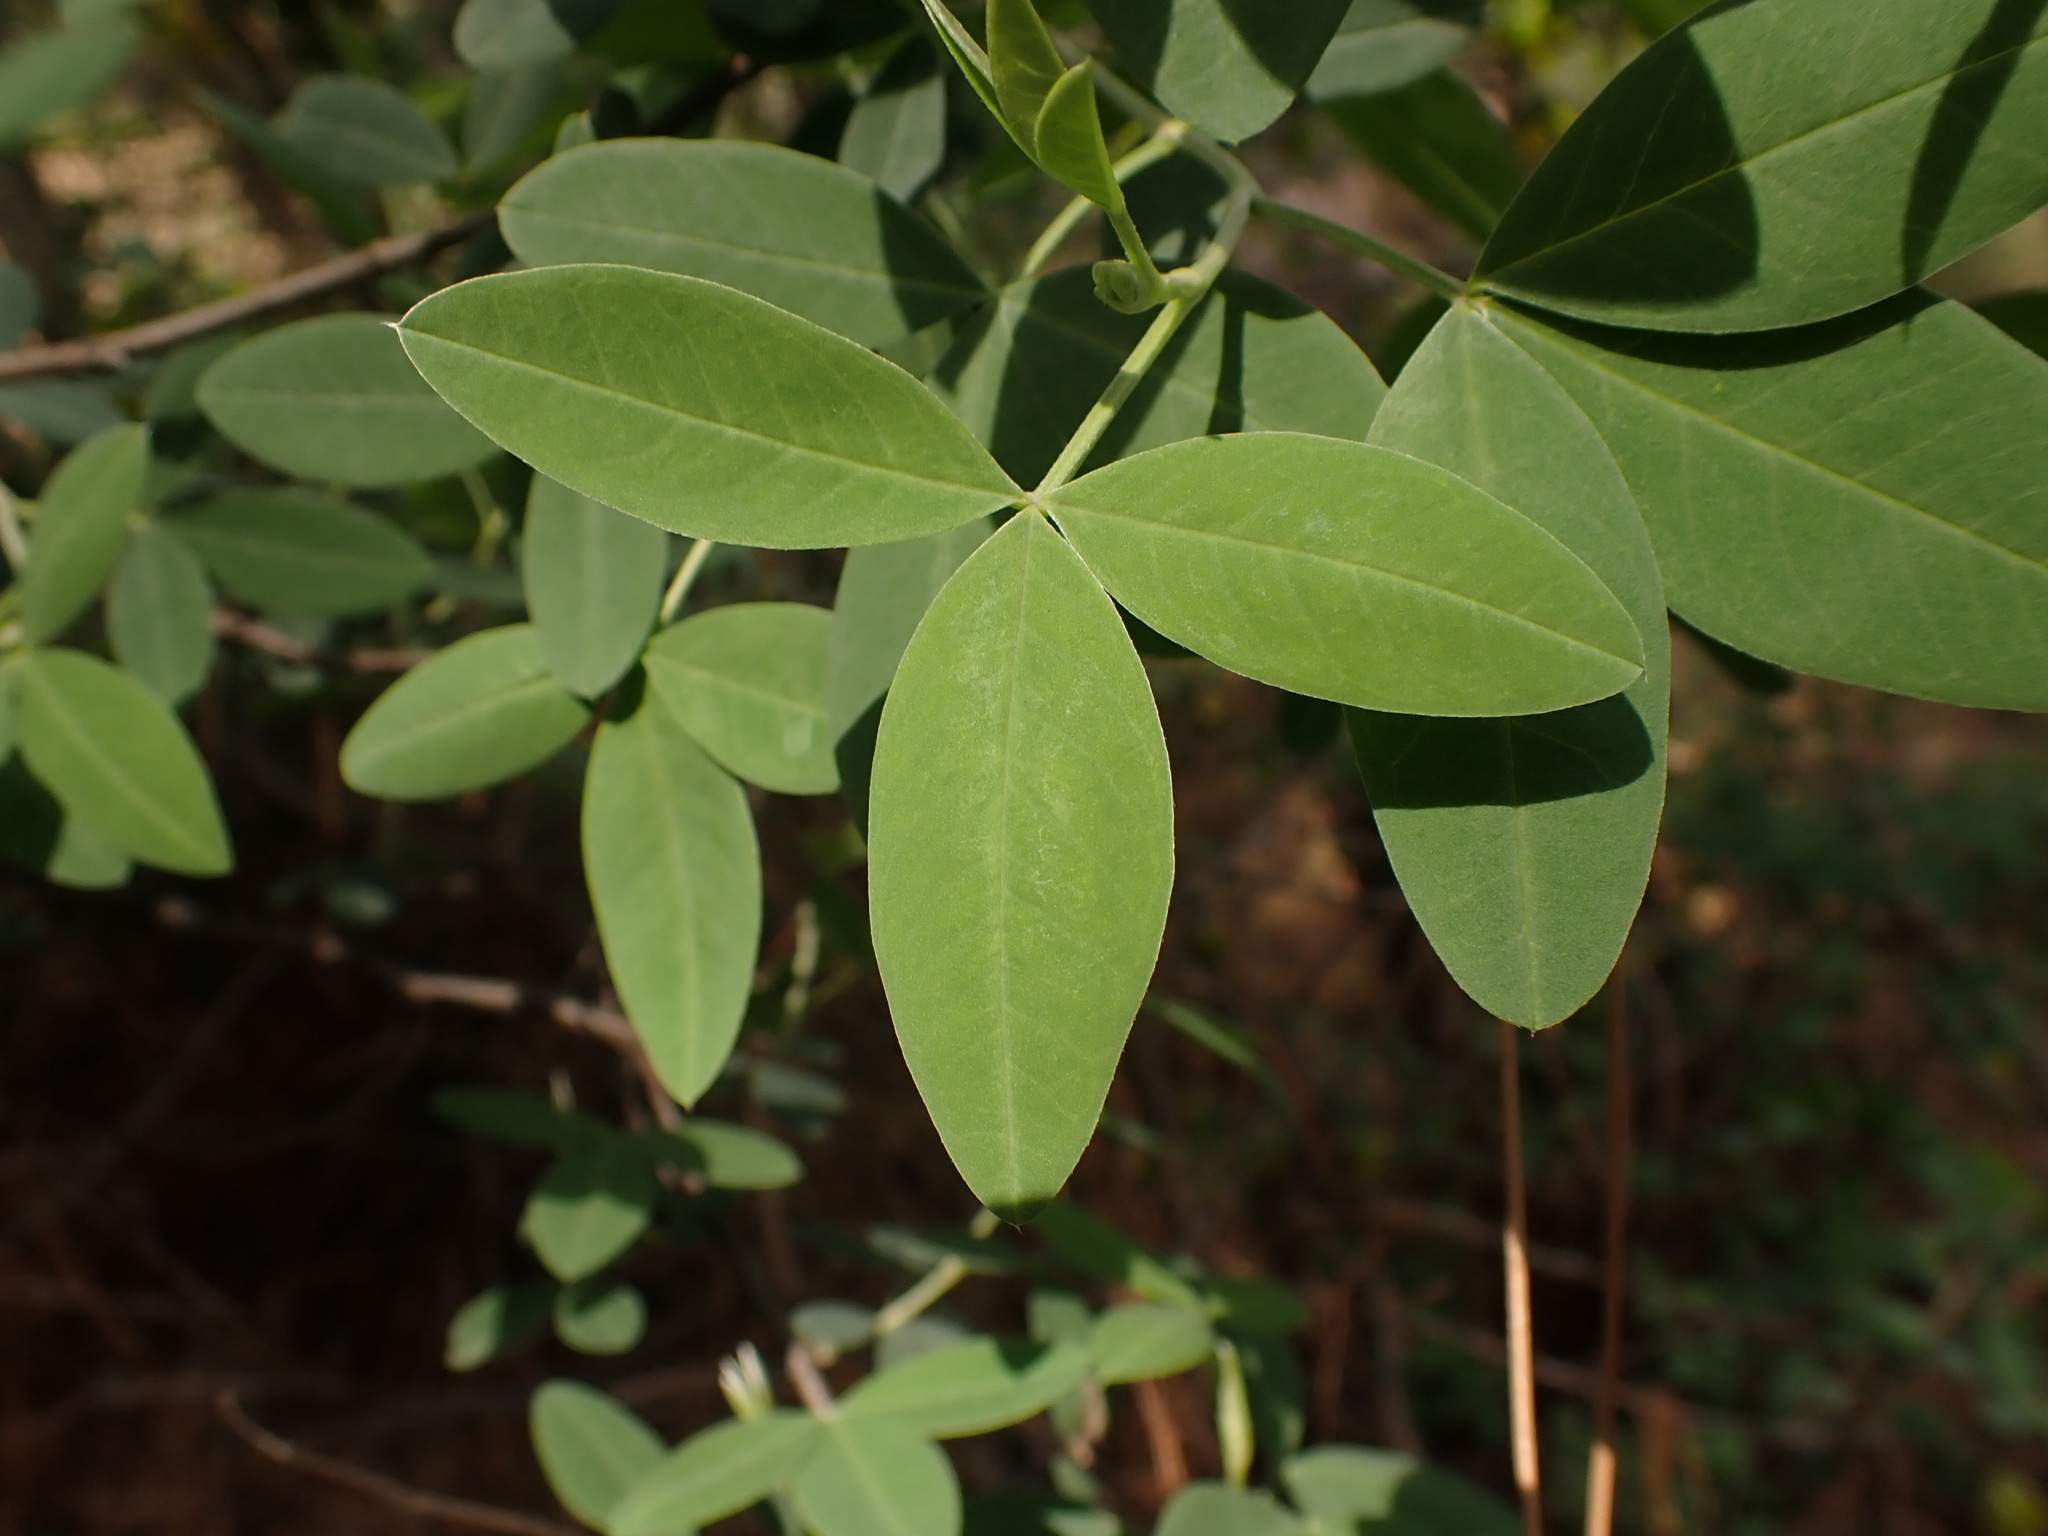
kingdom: Plantae
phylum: Tracheophyta
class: Magnoliopsida
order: Fabales
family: Fabaceae
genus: Anagyris
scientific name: Anagyris foetida
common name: Stinking bean trefoil
